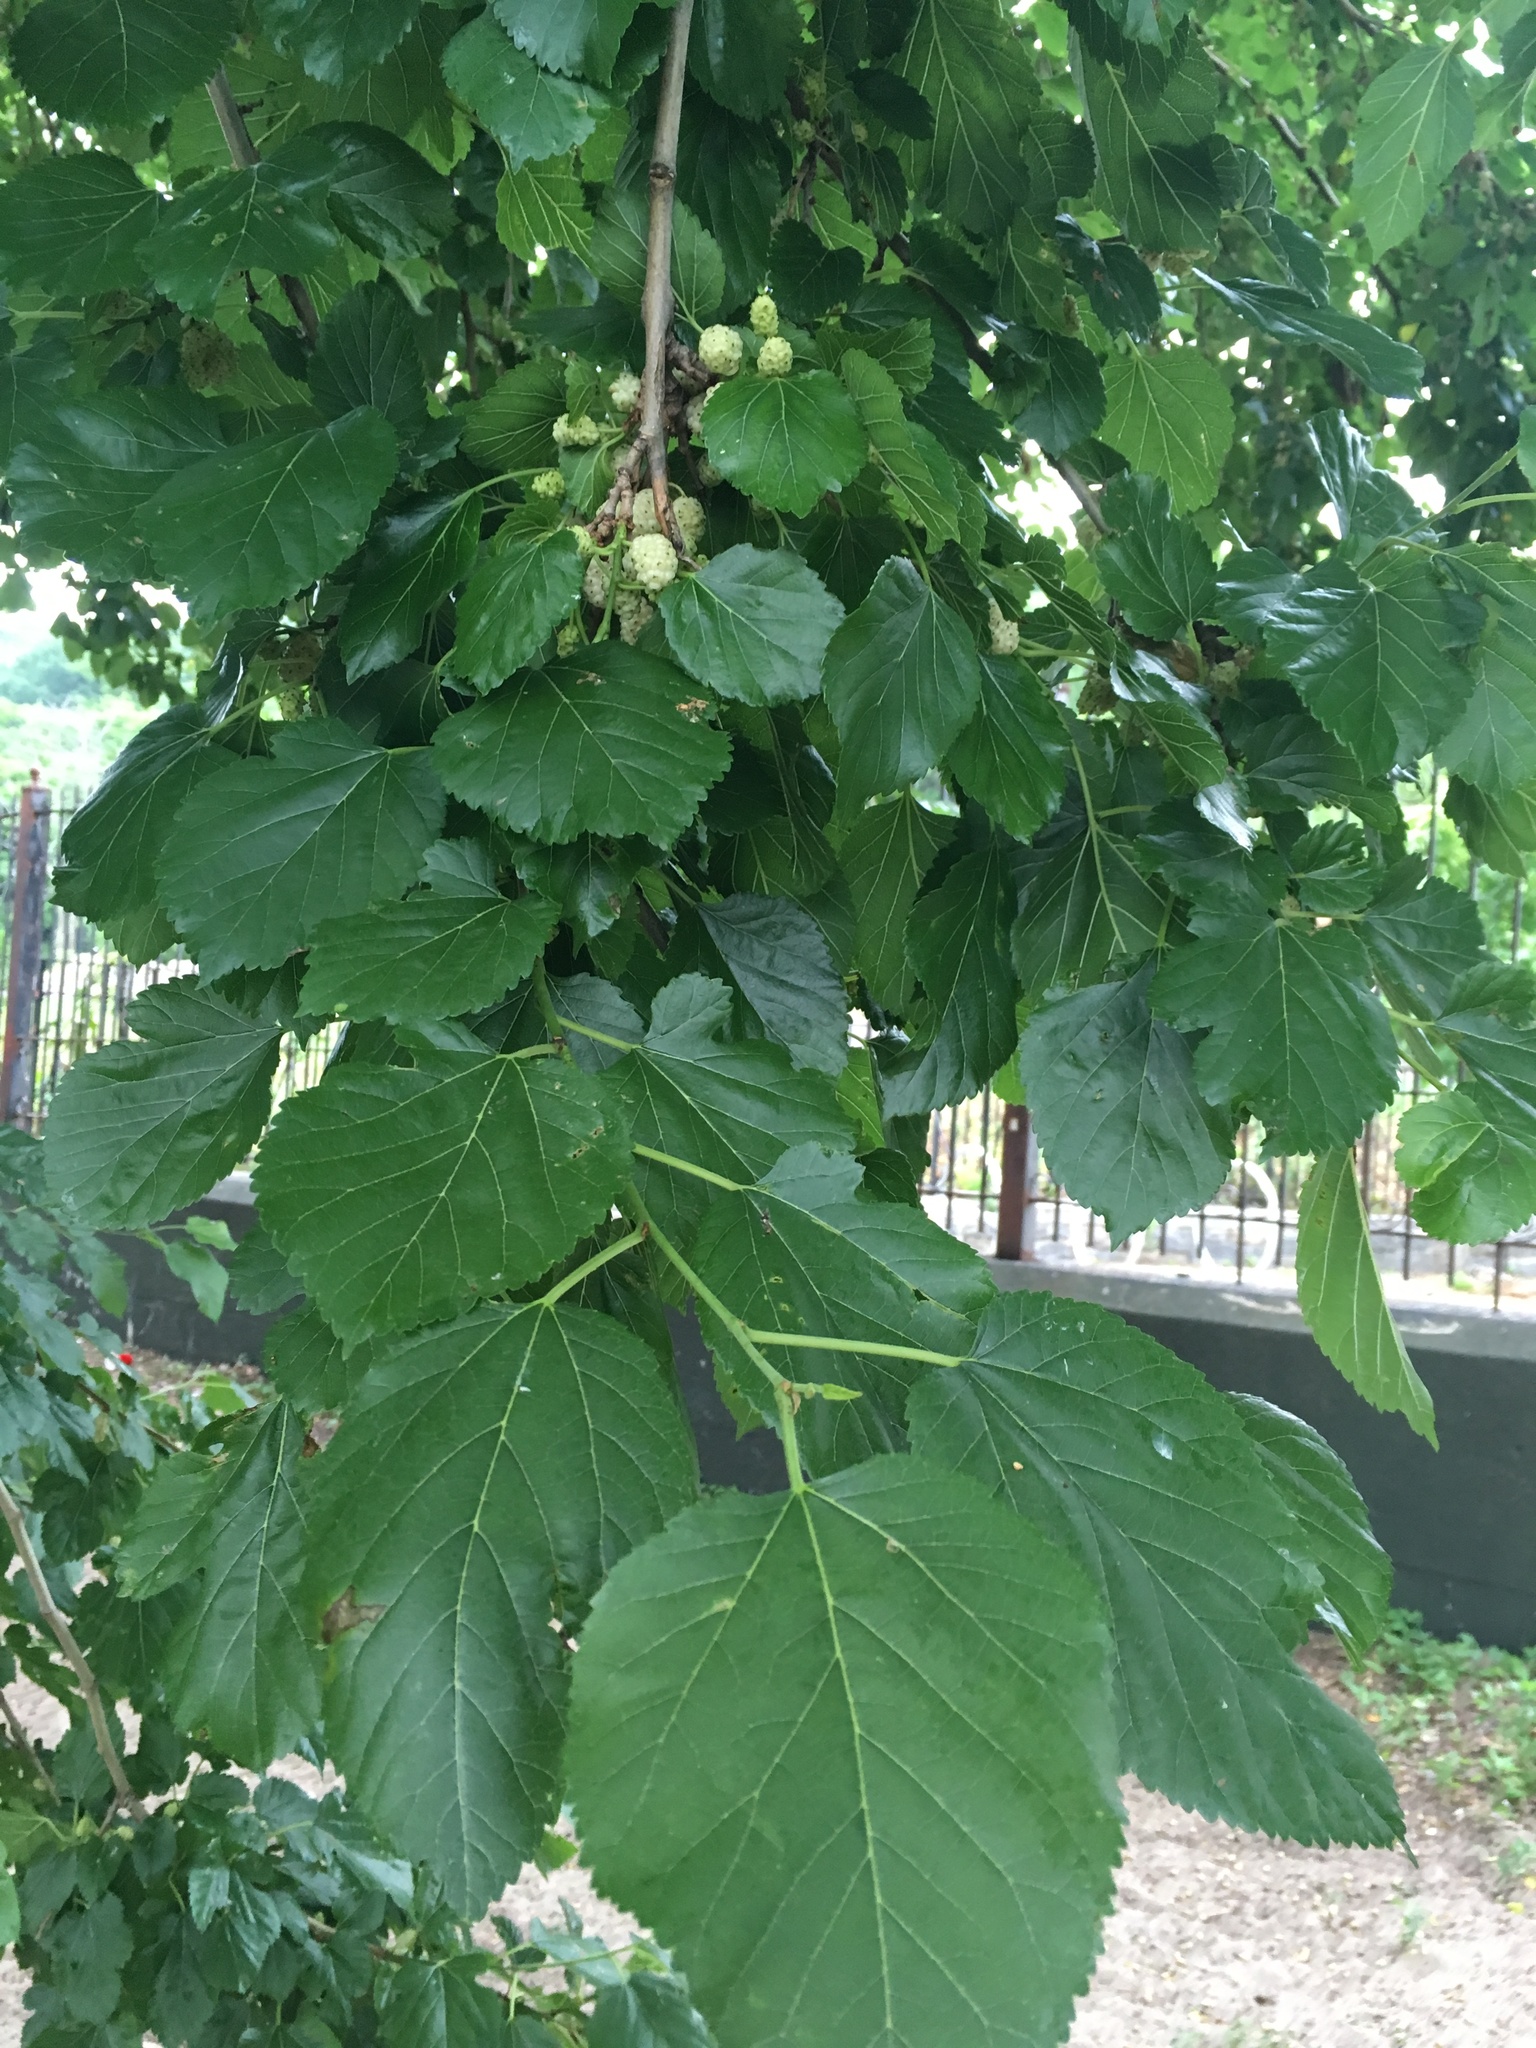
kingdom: Plantae
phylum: Tracheophyta
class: Magnoliopsida
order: Rosales
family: Moraceae
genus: Morus
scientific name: Morus alba
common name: White mulberry
